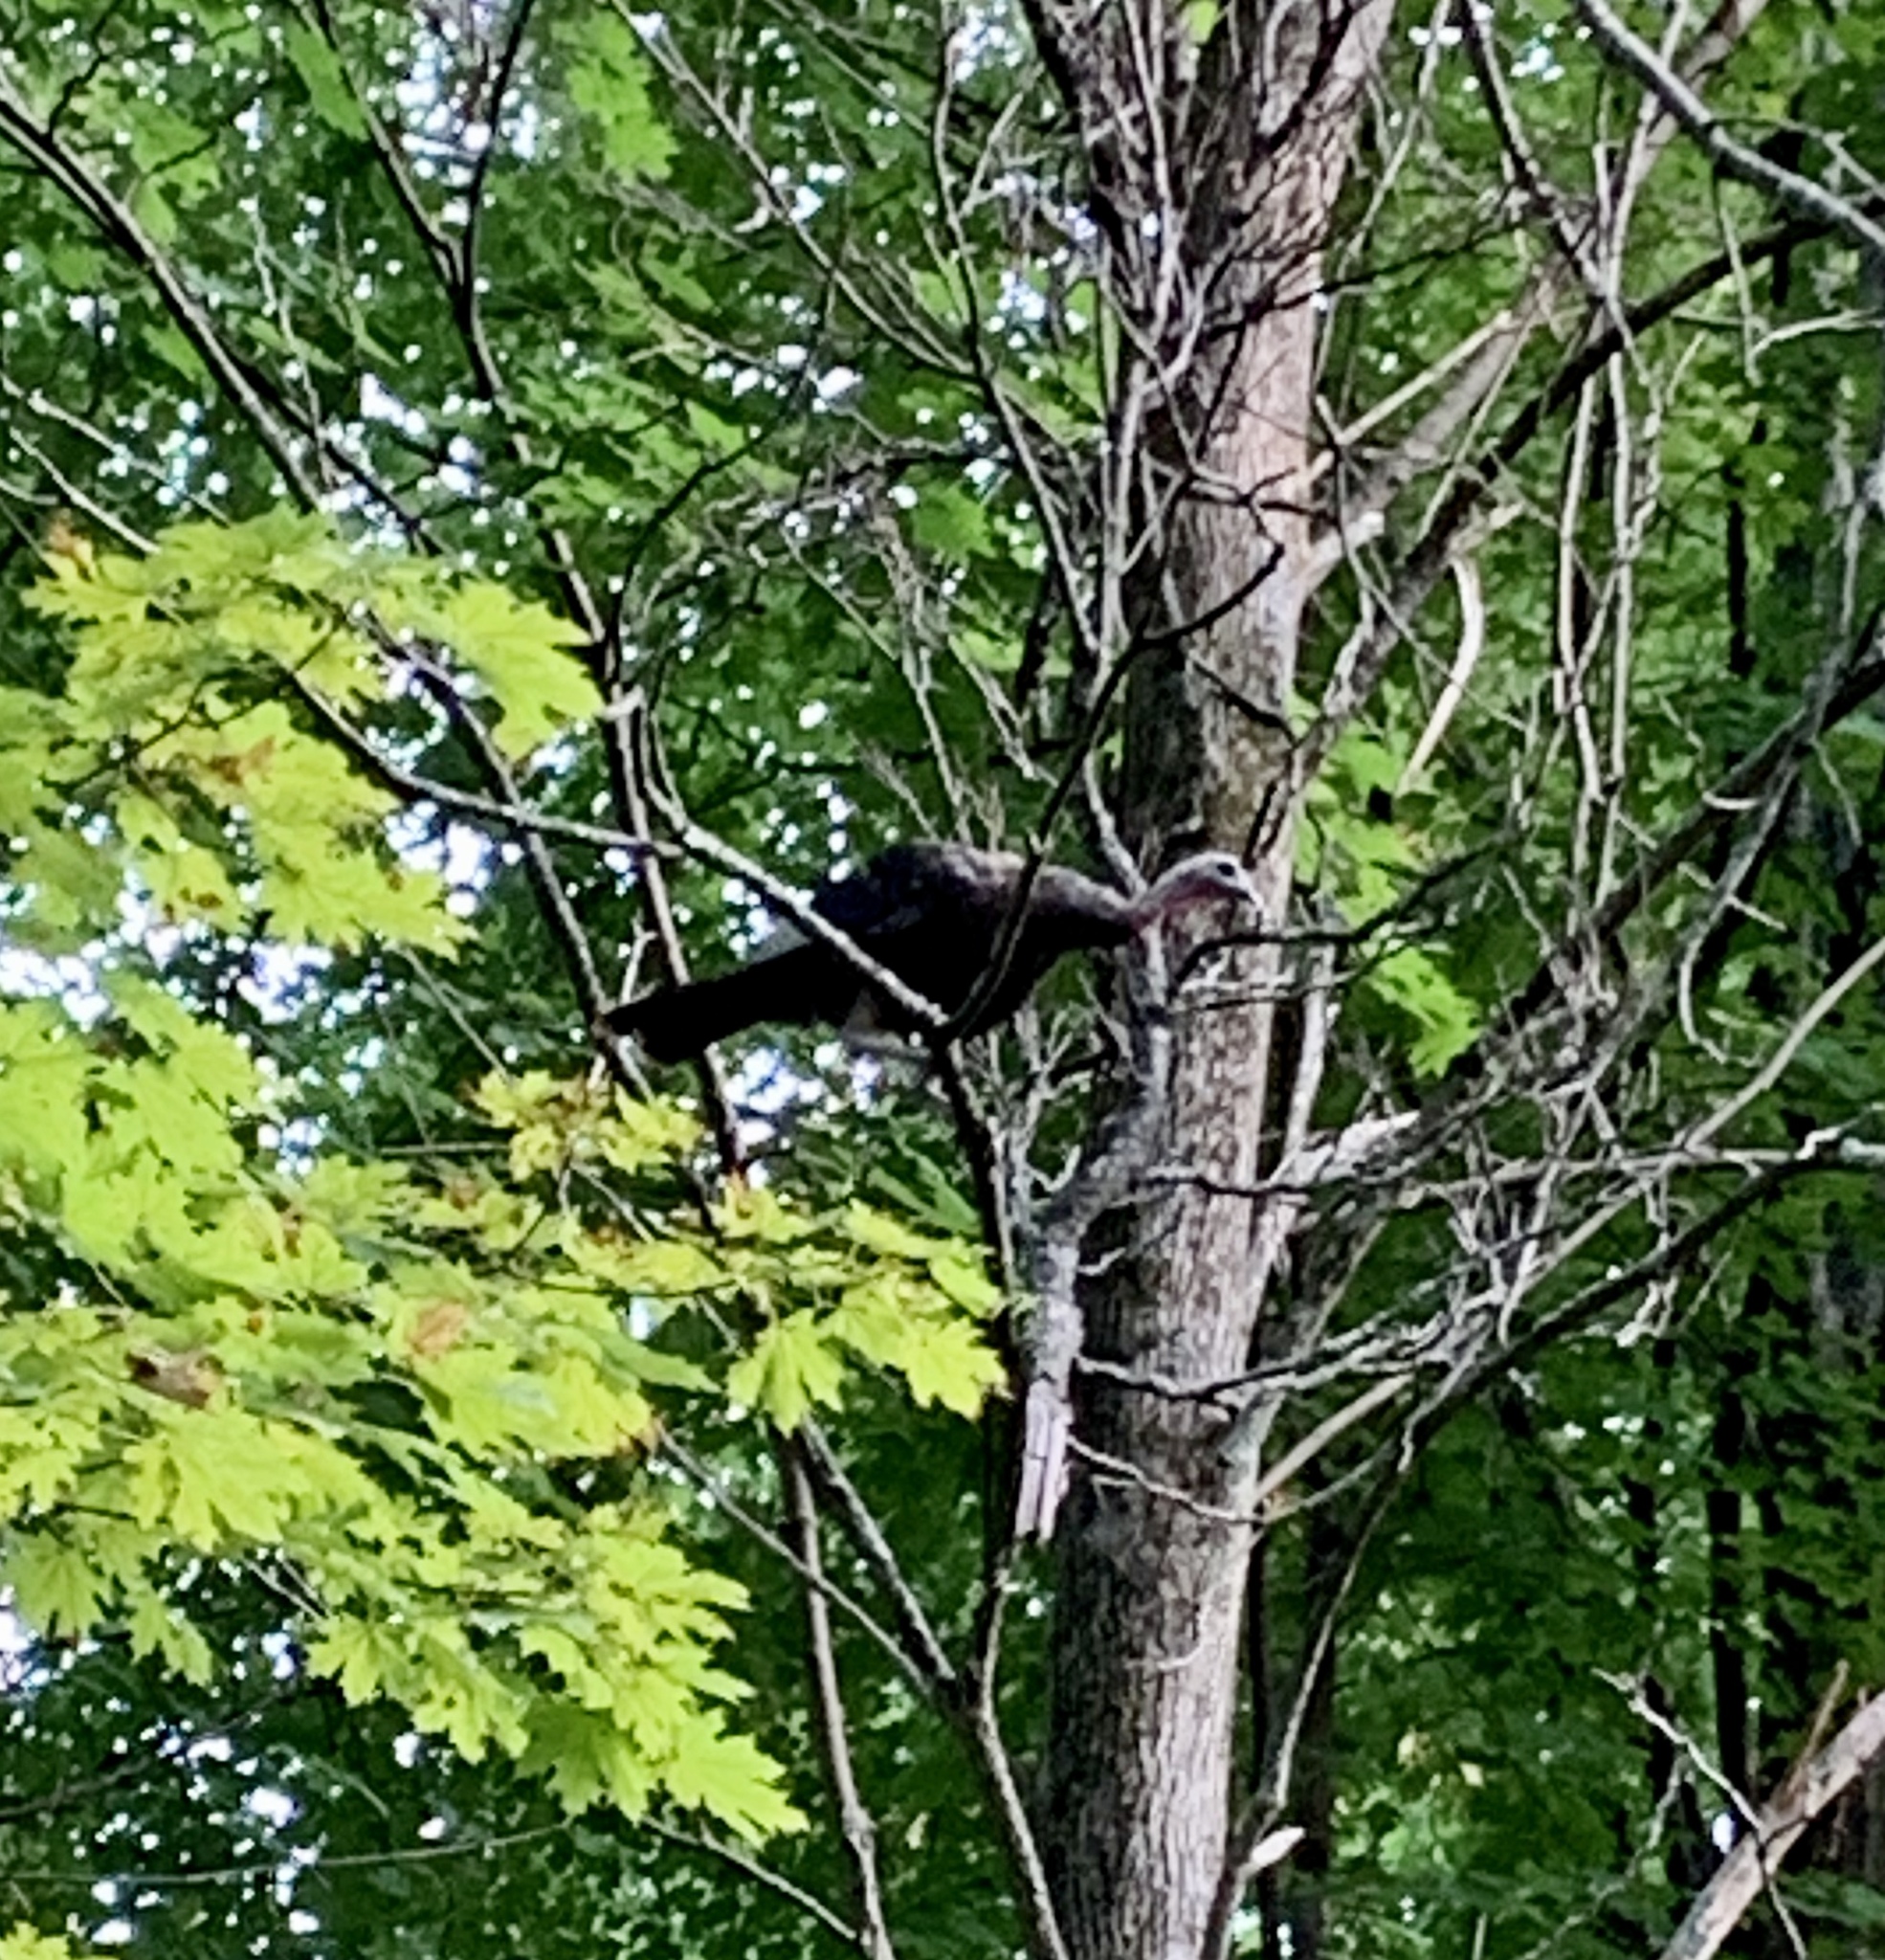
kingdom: Animalia
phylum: Chordata
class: Aves
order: Galliformes
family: Phasianidae
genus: Meleagris
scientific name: Meleagris gallopavo
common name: Wild turkey
